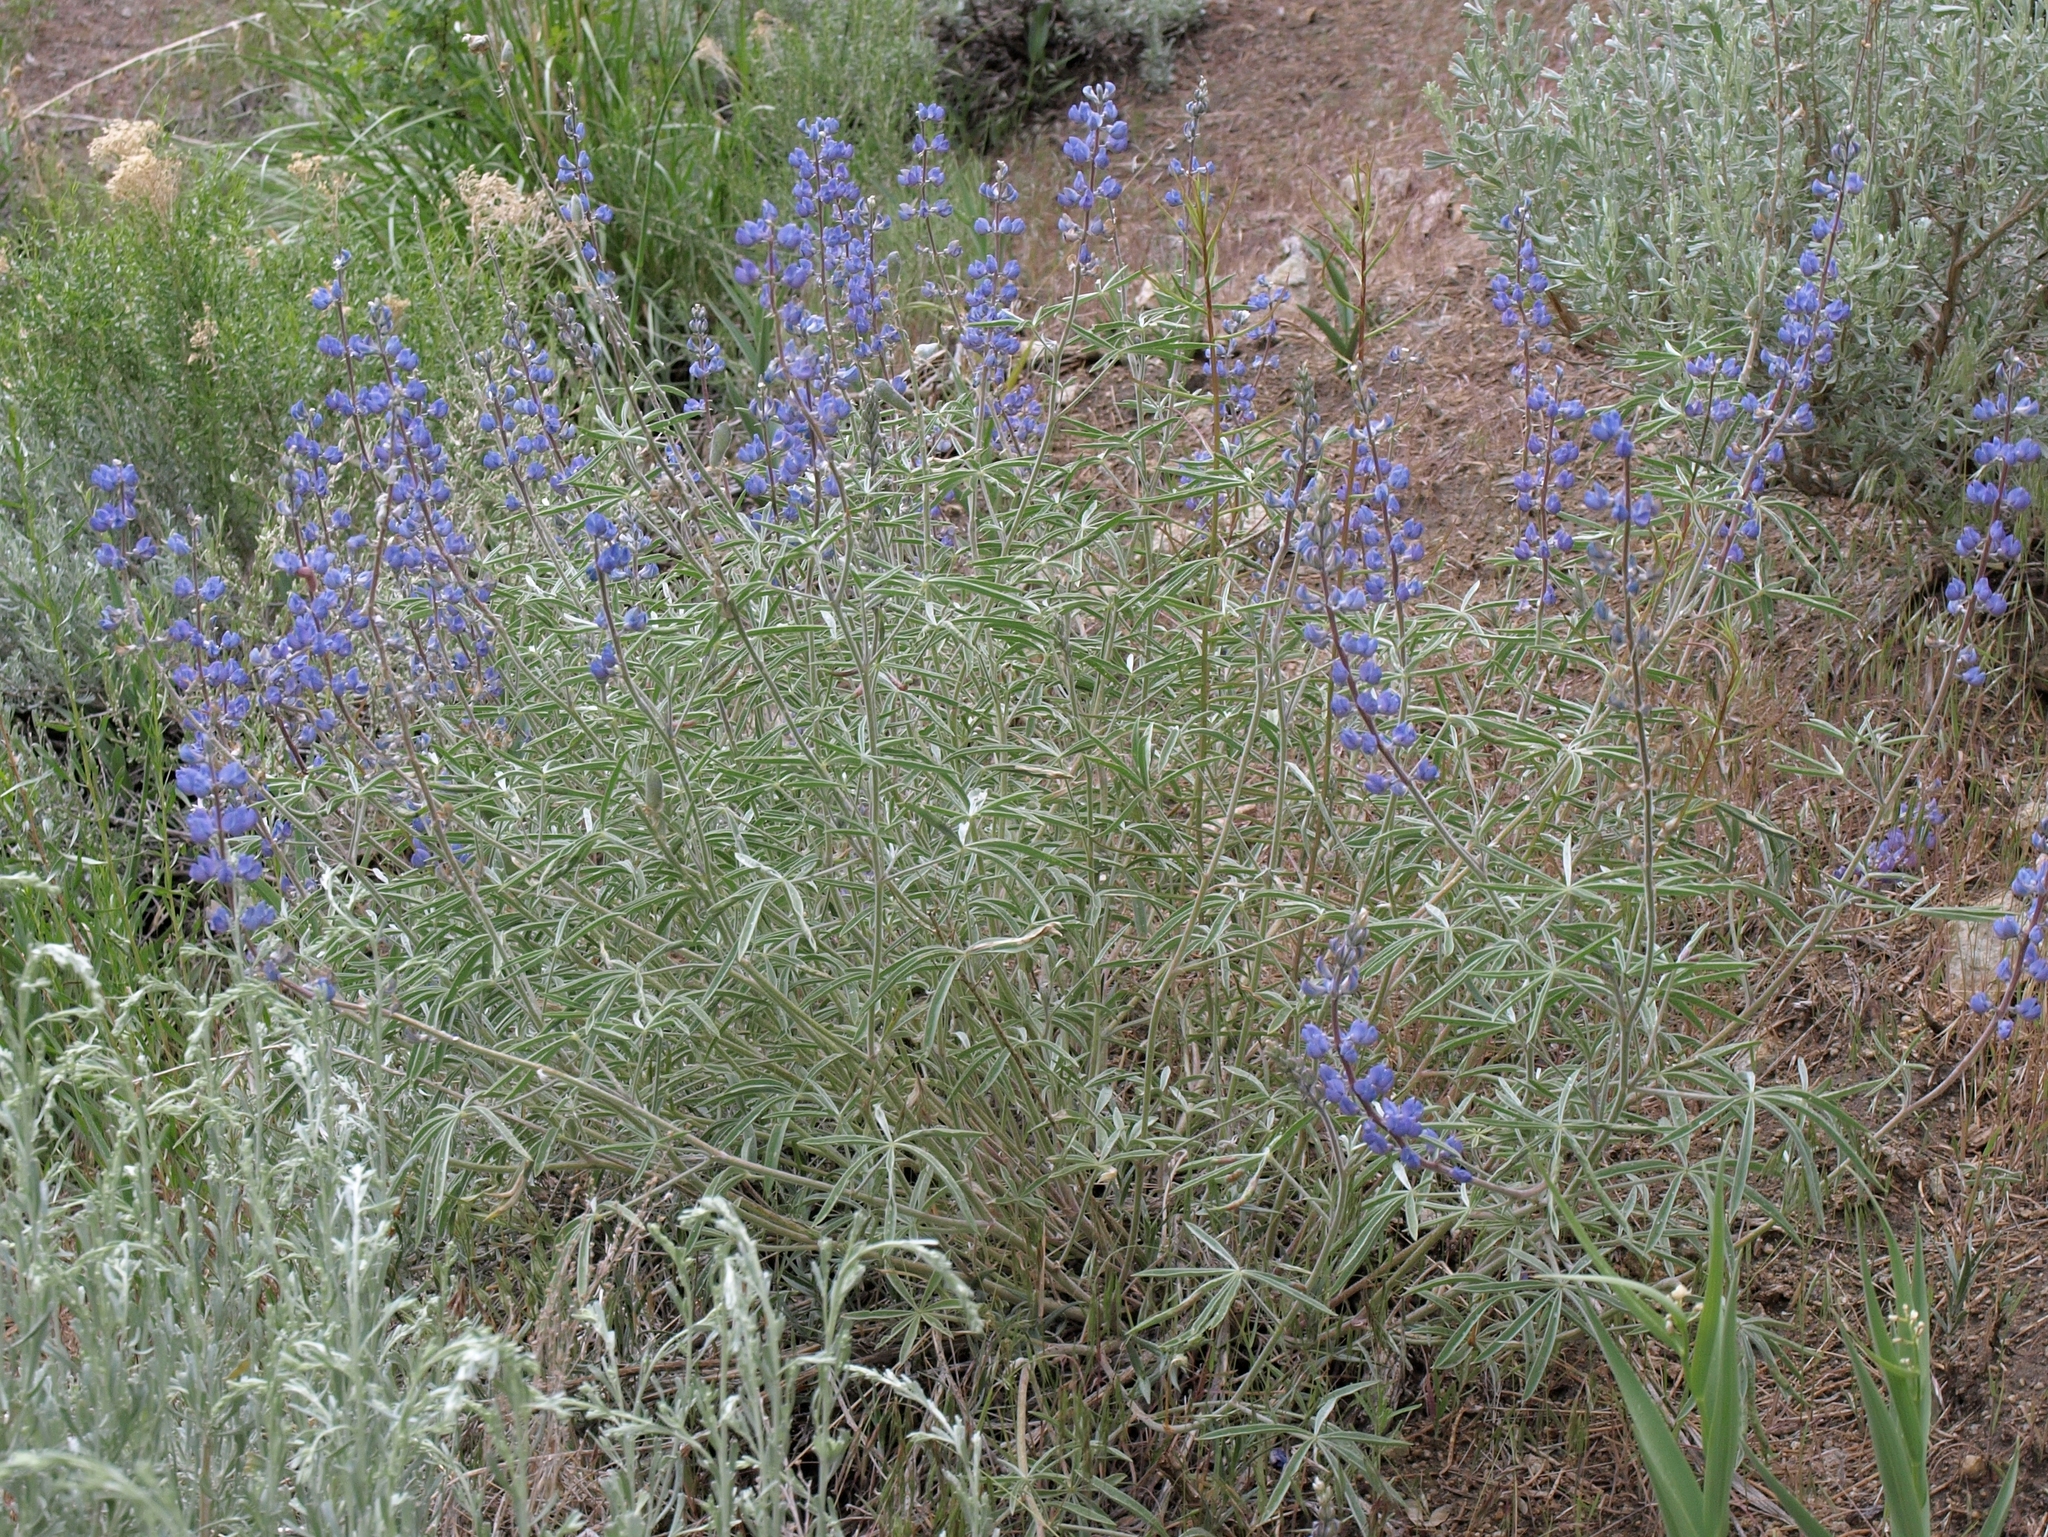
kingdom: Plantae
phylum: Tracheophyta
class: Magnoliopsida
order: Fabales
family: Fabaceae
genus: Lupinus
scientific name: Lupinus meionanthus
